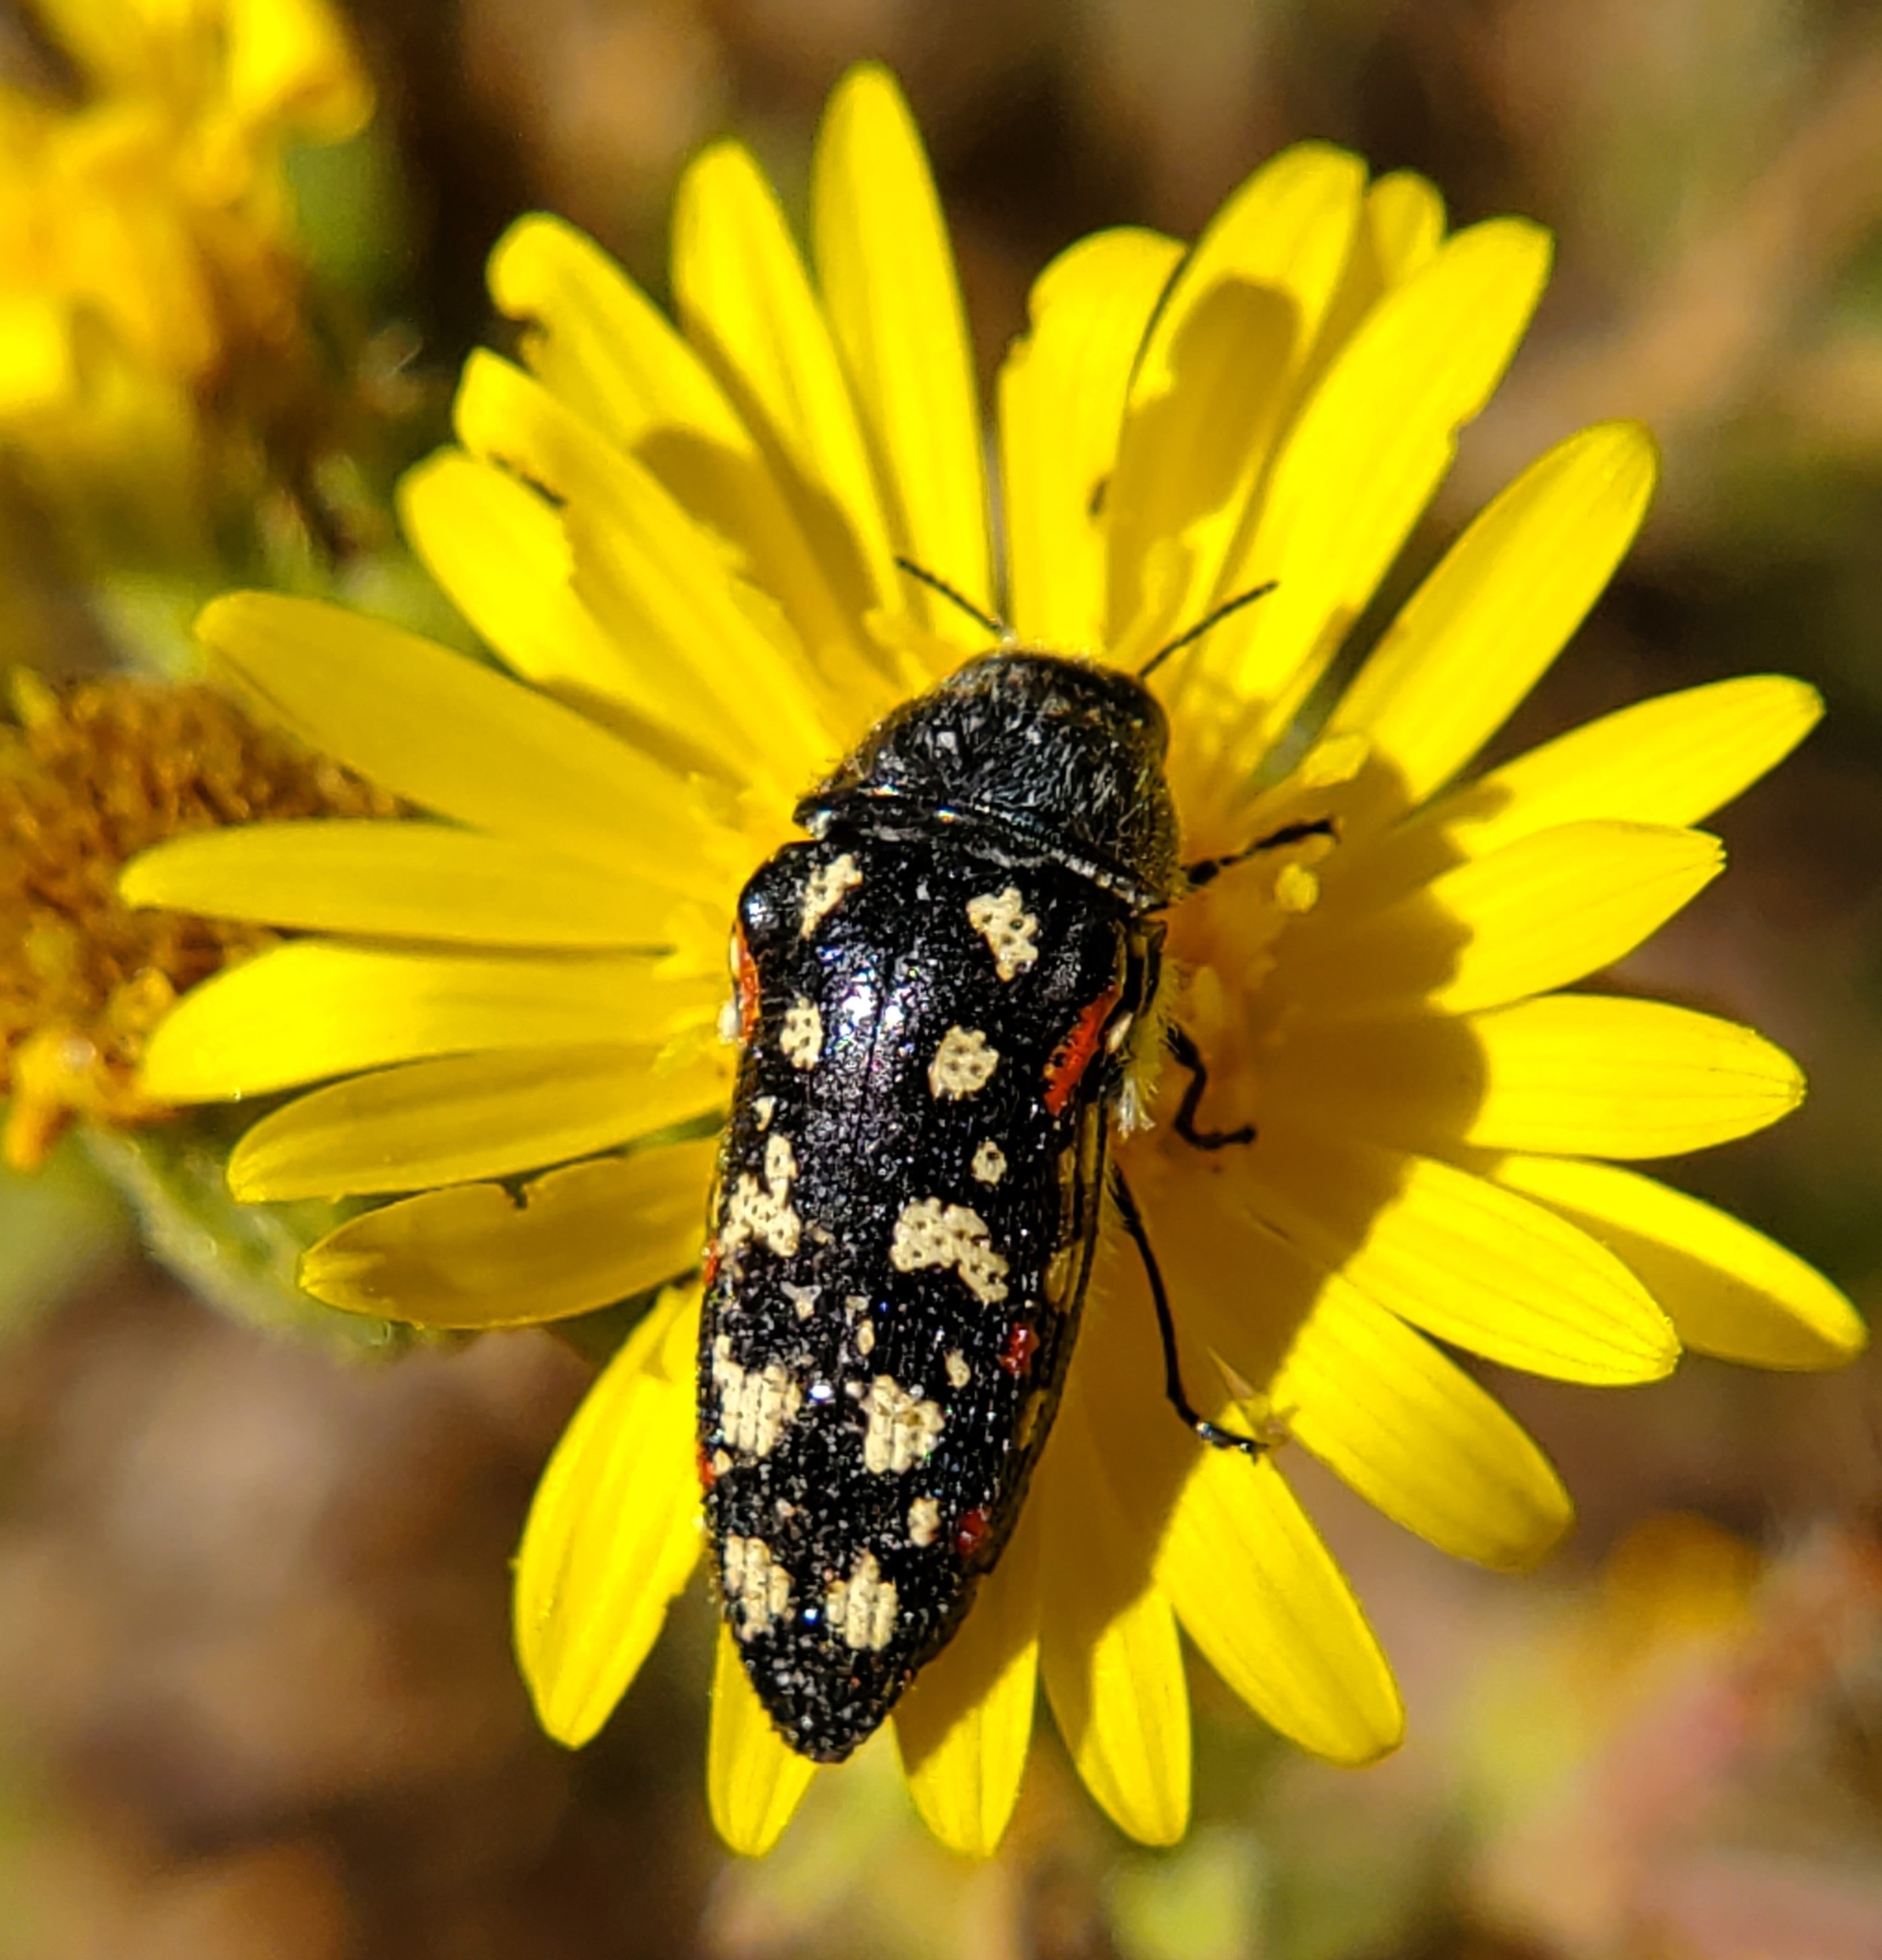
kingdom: Animalia
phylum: Arthropoda
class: Insecta
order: Coleoptera
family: Buprestidae
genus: Acmaeodera
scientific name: Acmaeodera gibbula
